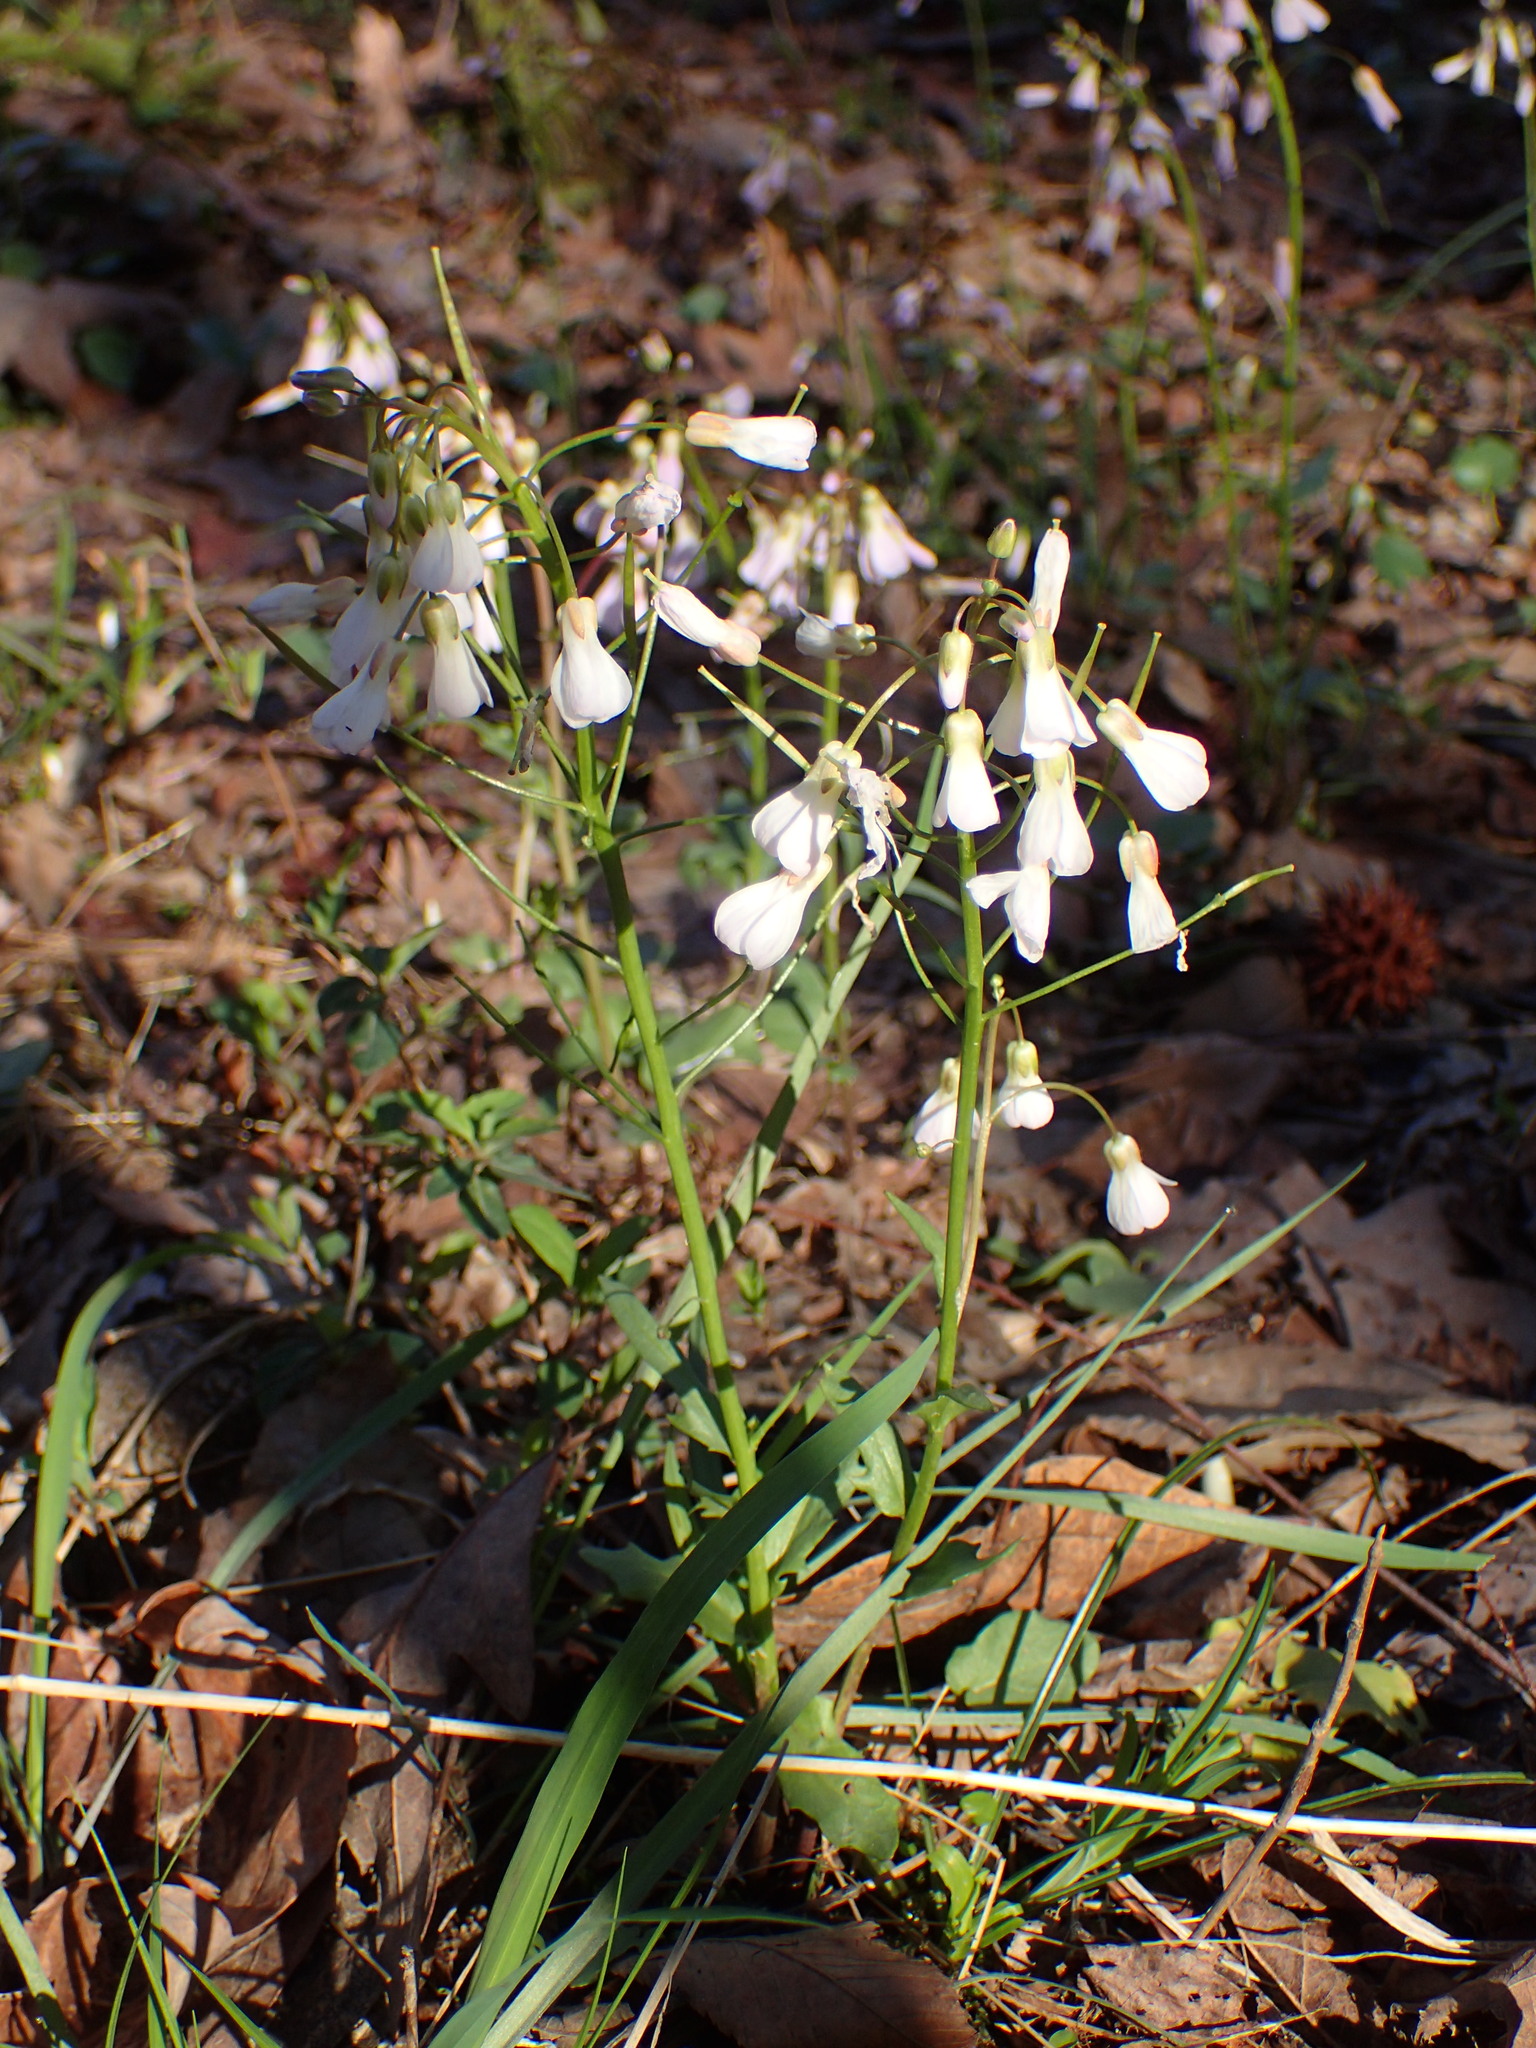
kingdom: Plantae
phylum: Tracheophyta
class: Magnoliopsida
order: Brassicales
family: Brassicaceae
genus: Cardamine
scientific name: Cardamine douglassii
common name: Purple cress
